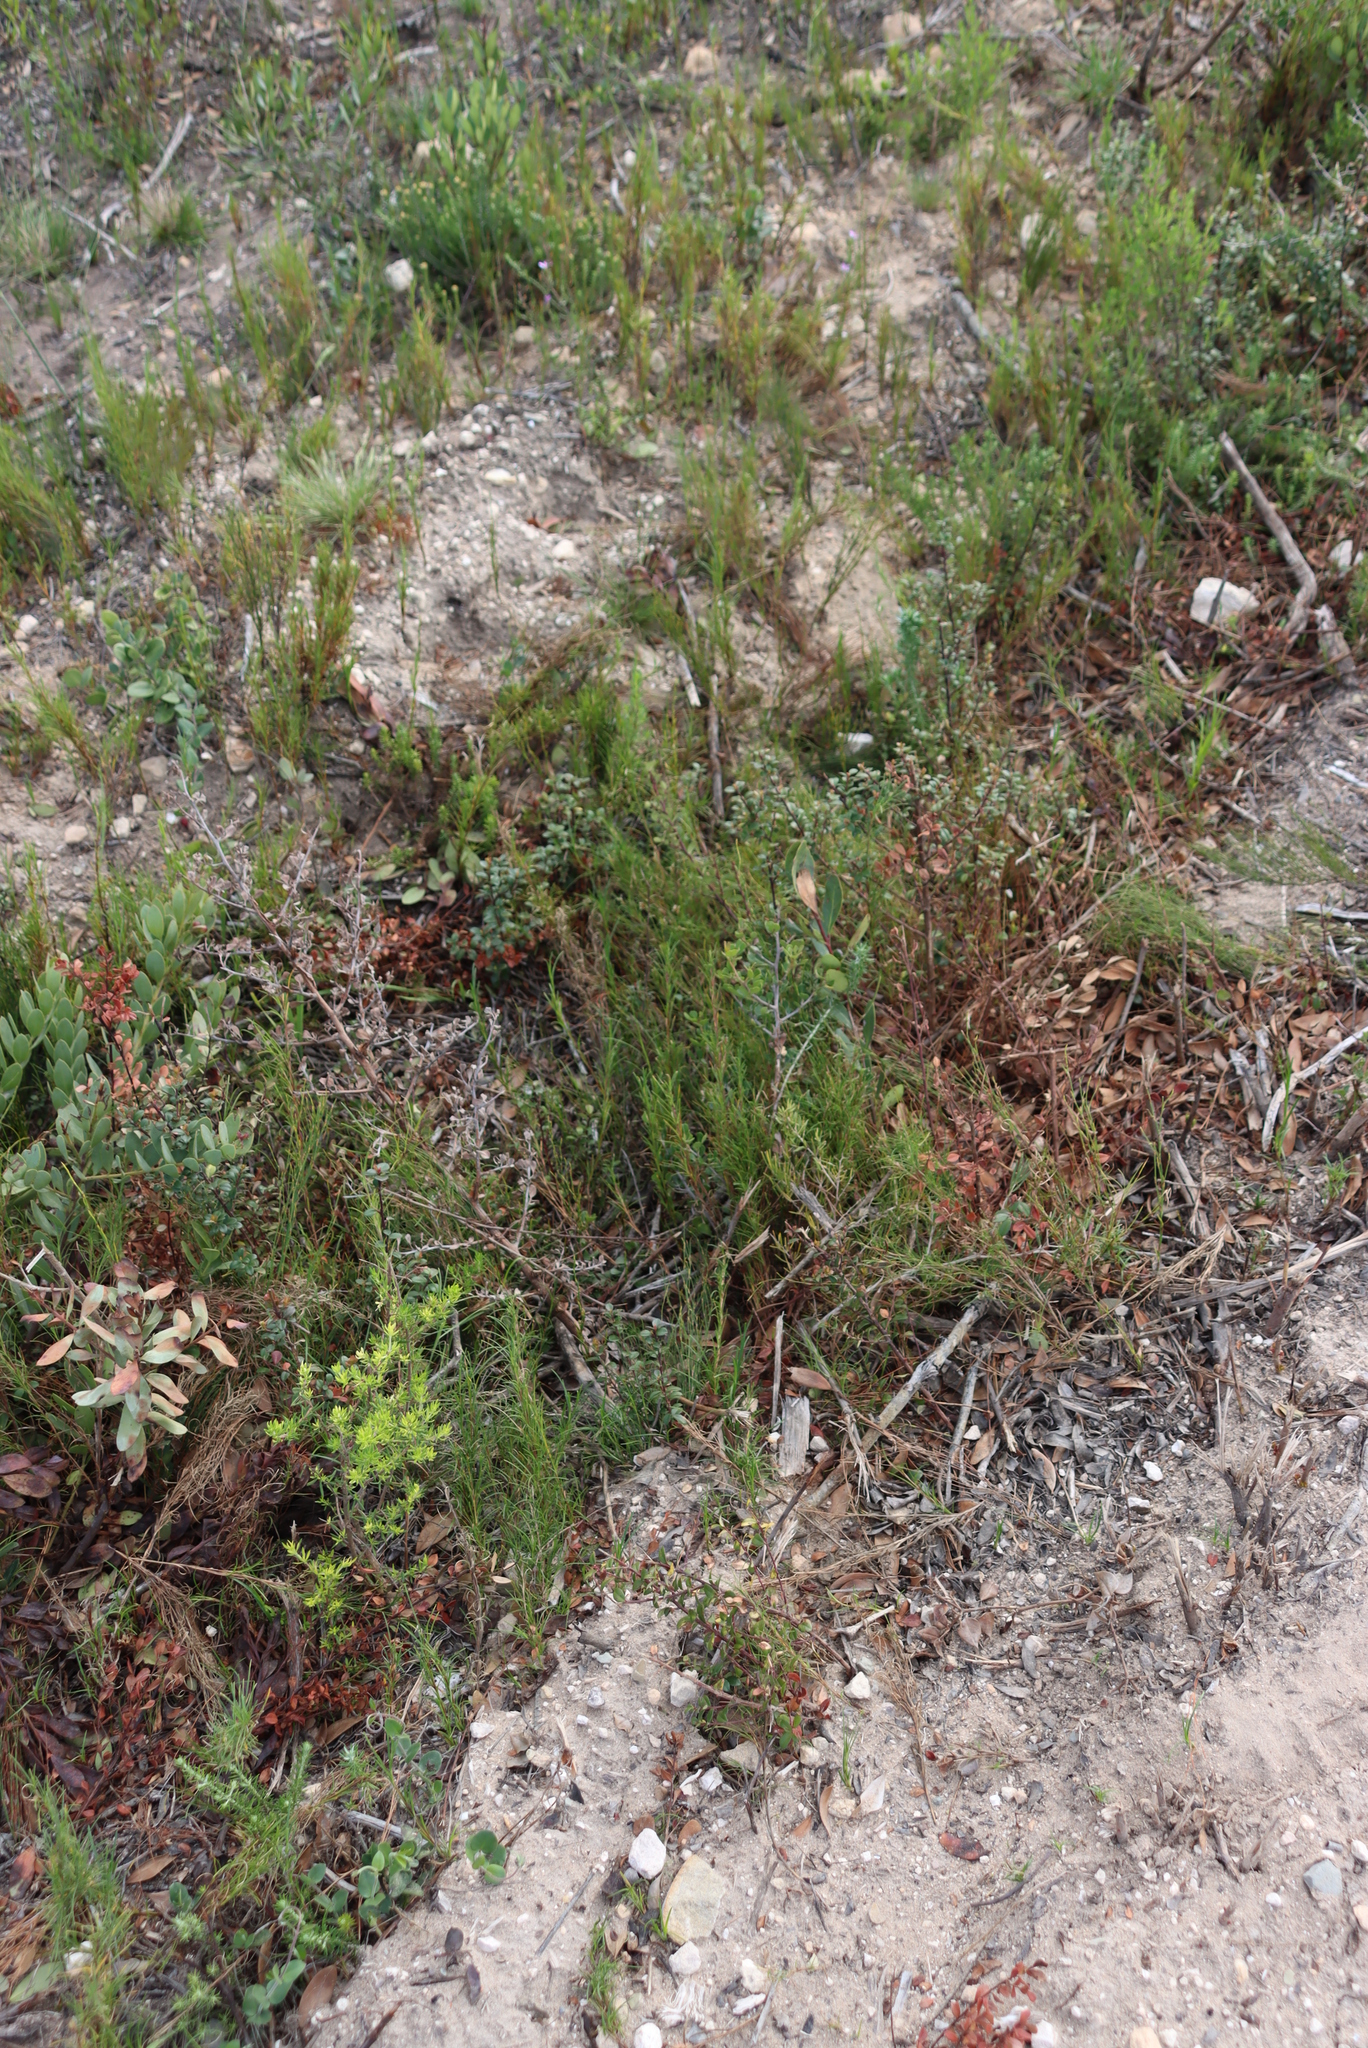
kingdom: Plantae
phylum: Tracheophyta
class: Liliopsida
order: Poales
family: Cyperaceae
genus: Ficinia
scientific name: Ficinia ramosissima
